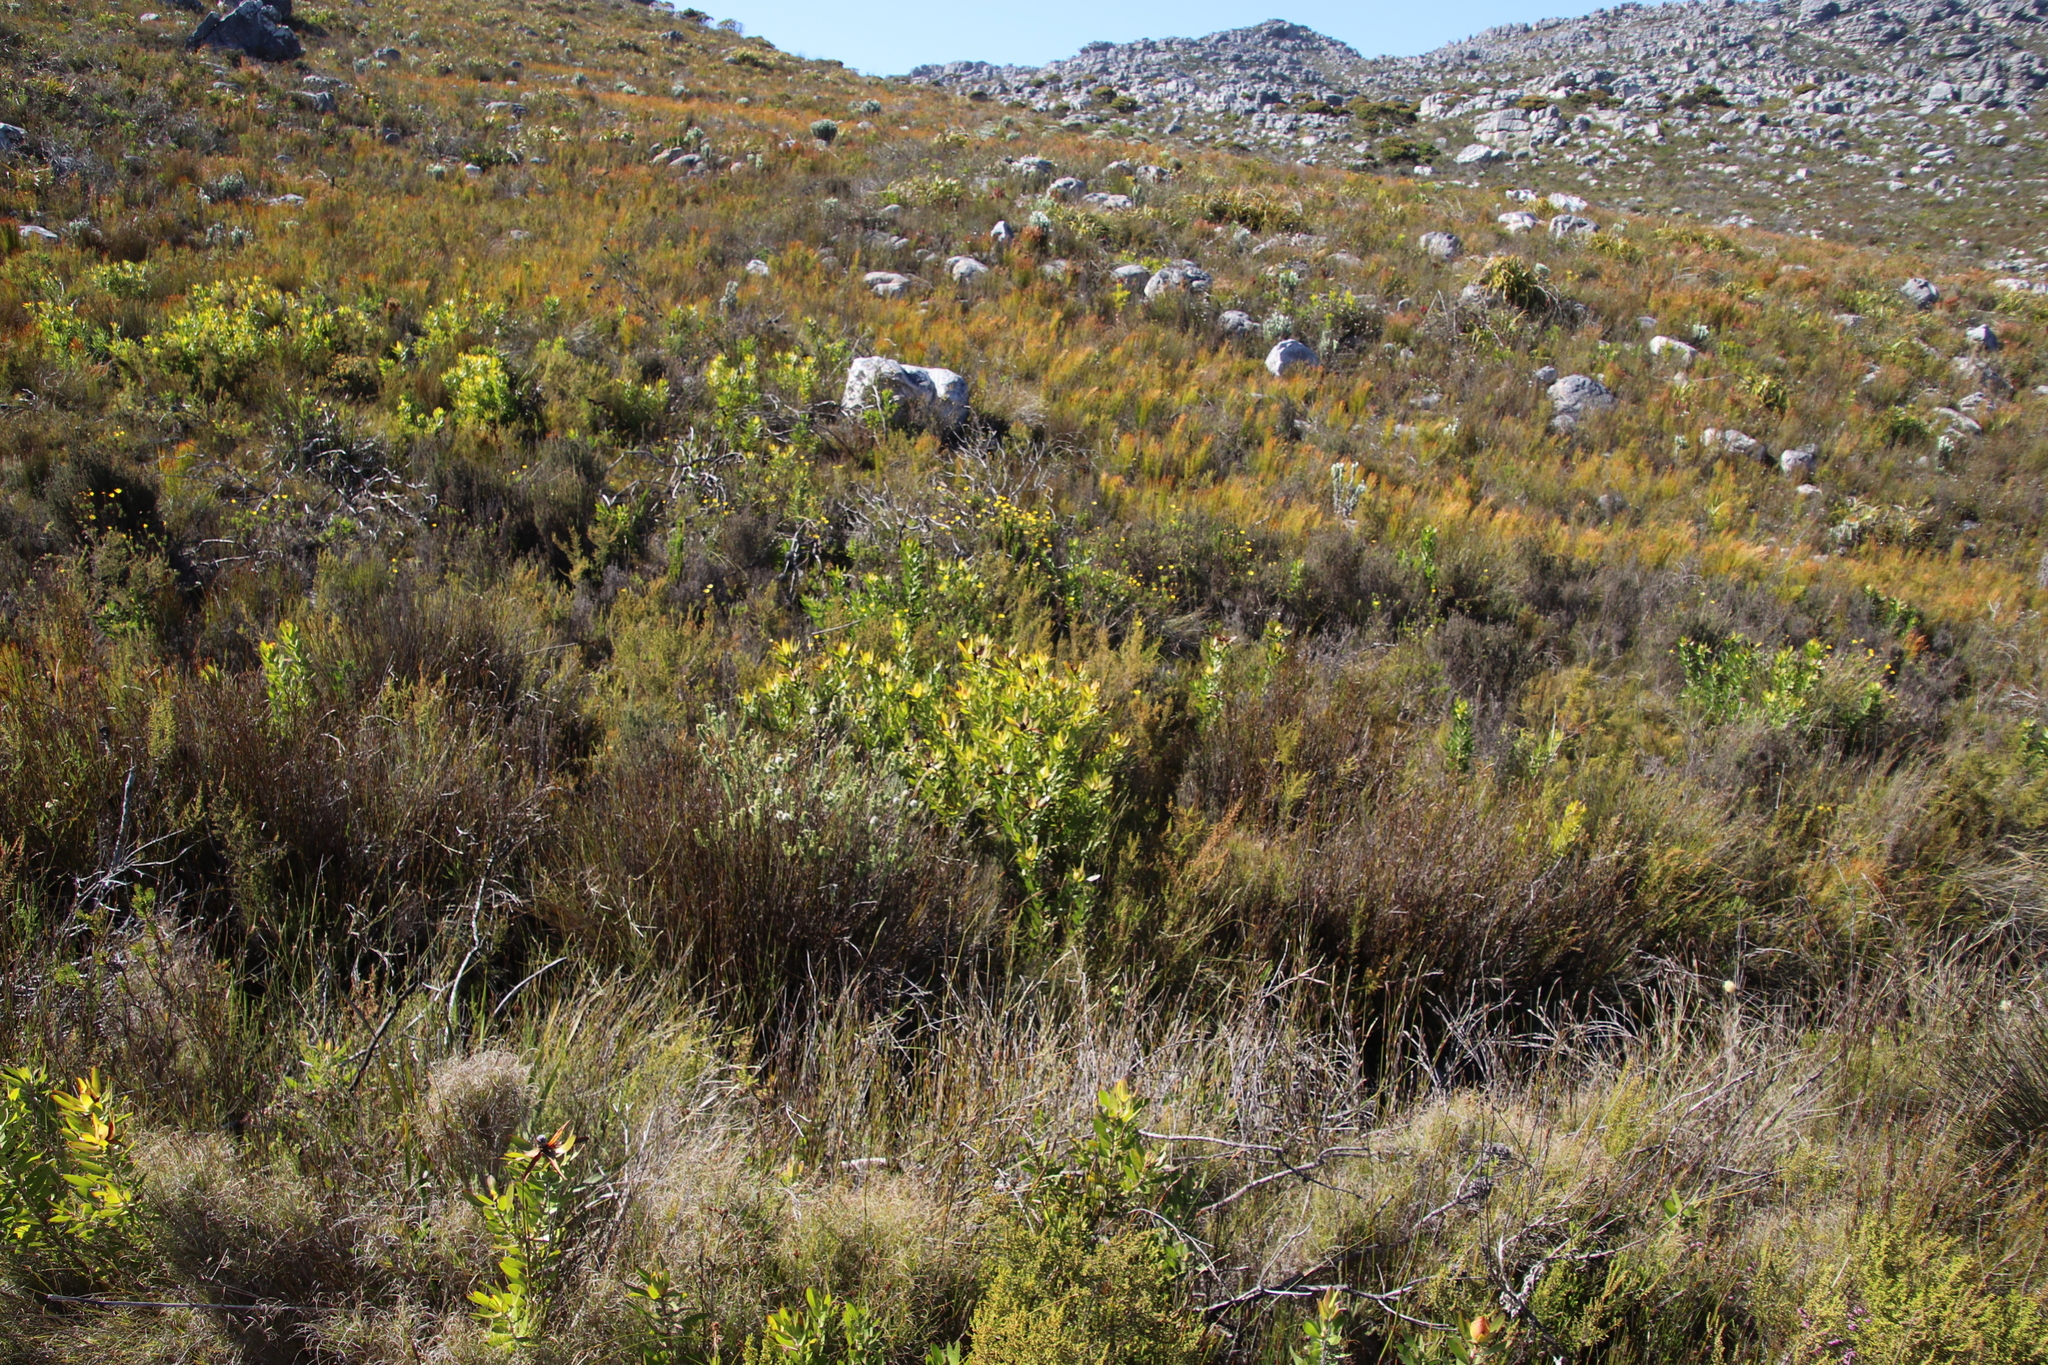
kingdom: Plantae
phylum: Tracheophyta
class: Magnoliopsida
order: Proteales
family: Proteaceae
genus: Leucadendron
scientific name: Leucadendron laureolum
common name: Golden sunshinebush
